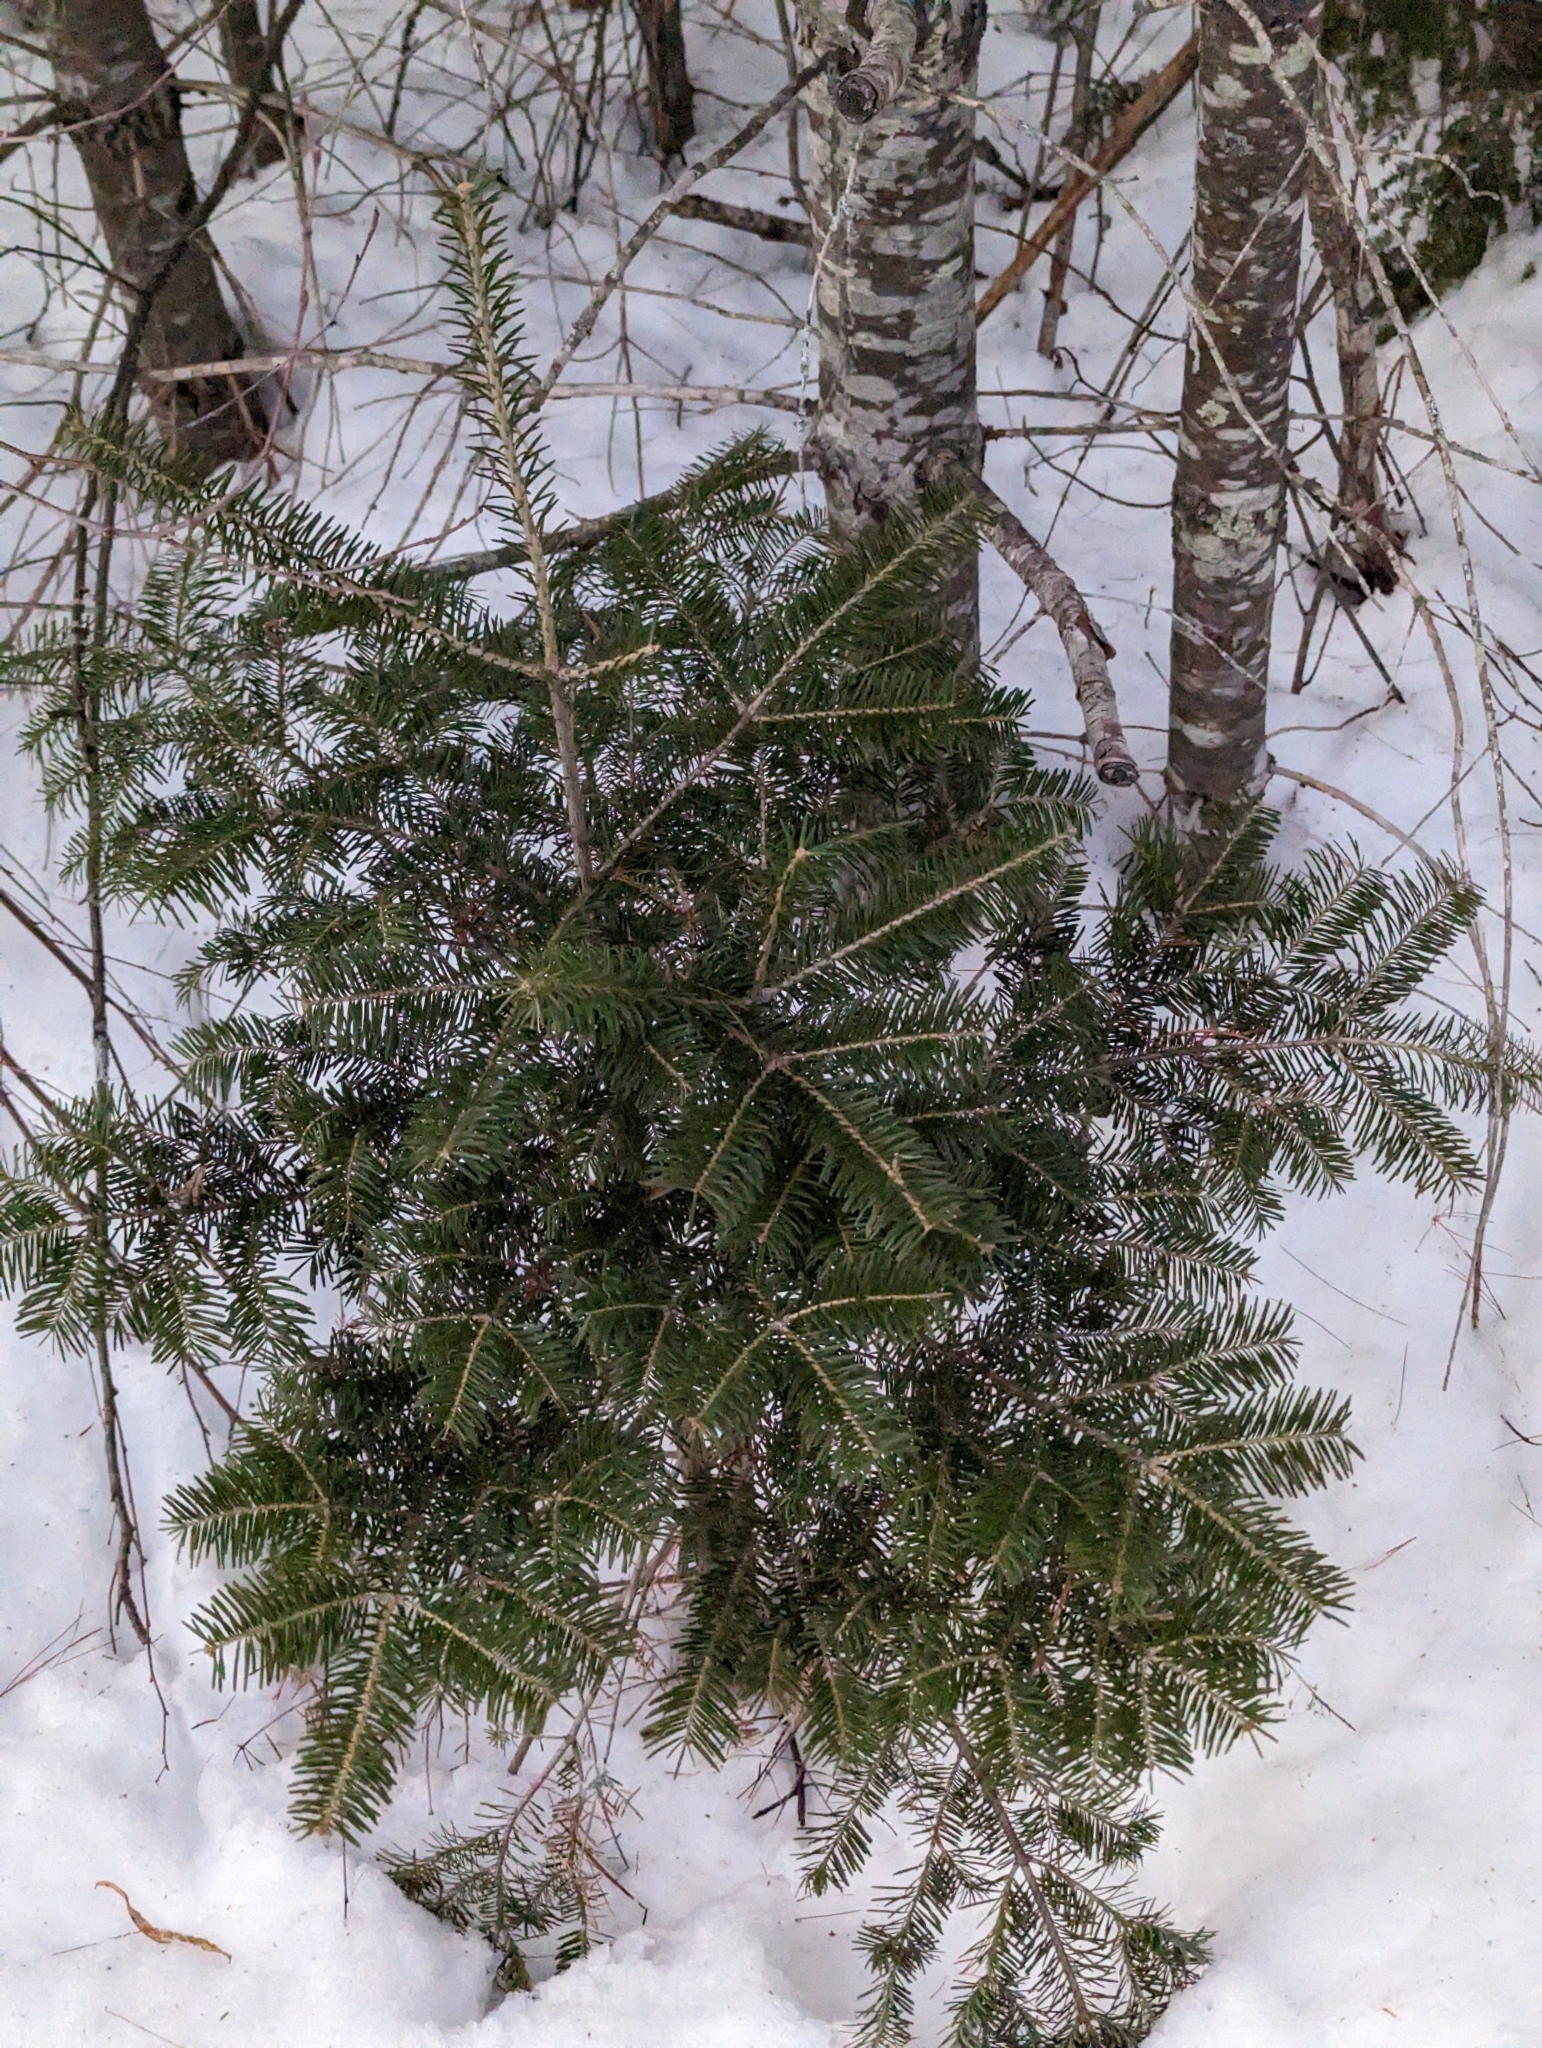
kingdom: Plantae
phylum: Tracheophyta
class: Pinopsida
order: Pinales
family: Pinaceae
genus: Abies
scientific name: Abies balsamea
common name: Balsam fir
